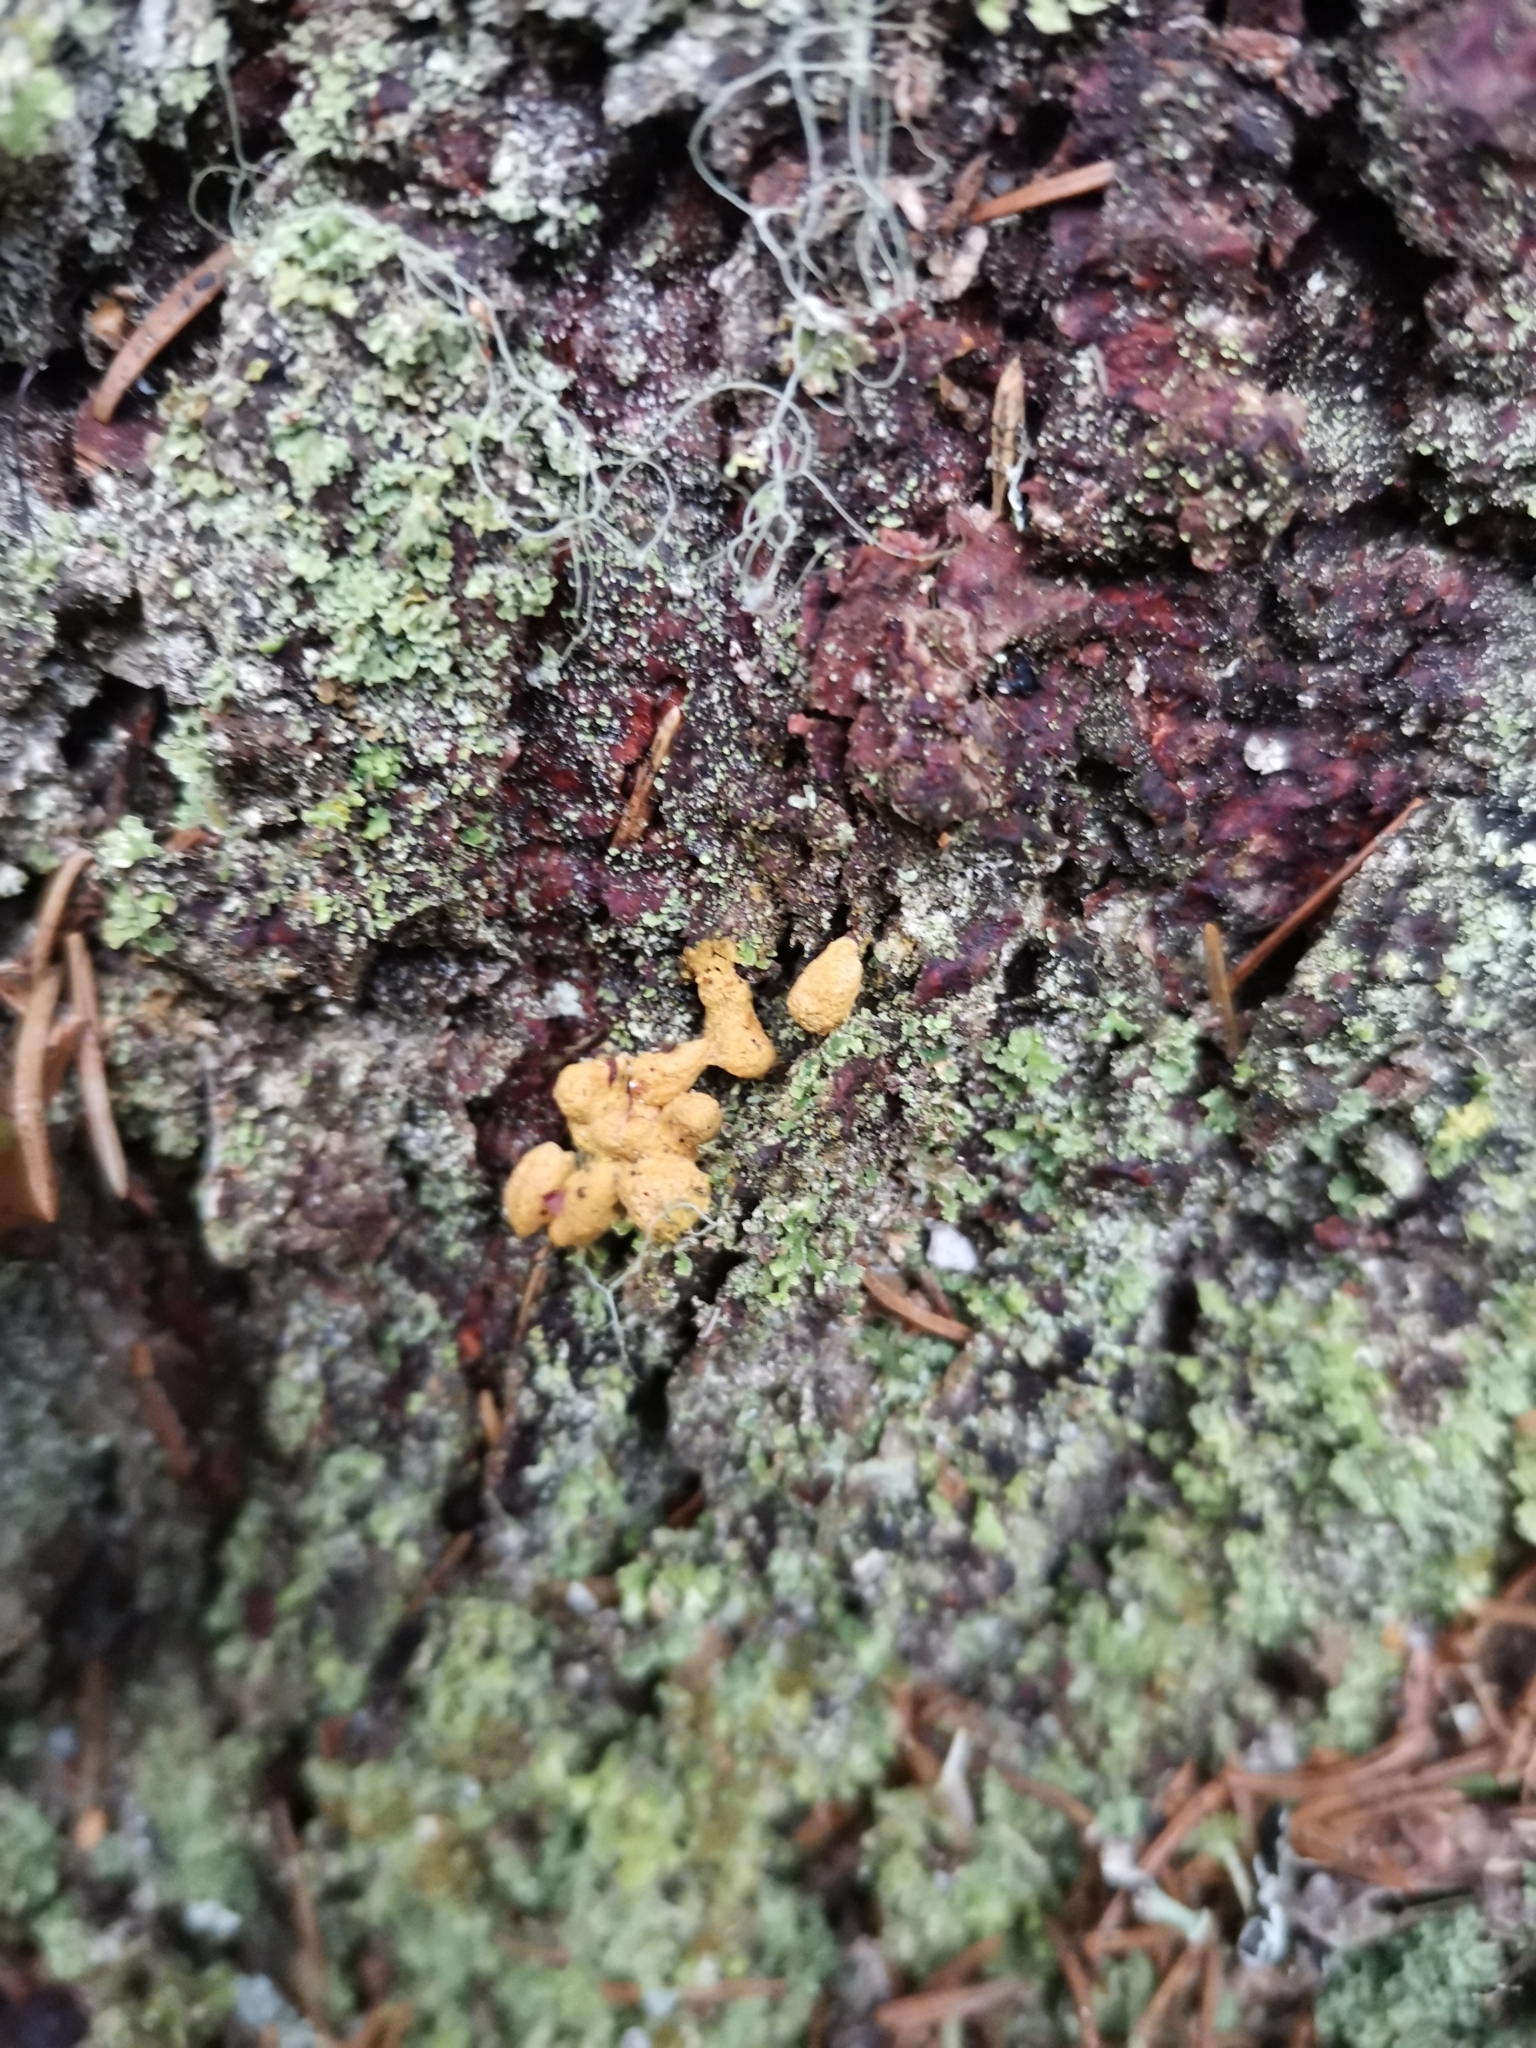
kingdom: Animalia
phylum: Chordata
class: Mammalia
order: Rodentia
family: Sciuridae
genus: Pteromys
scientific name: Pteromys volans
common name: Siberian flying squirrel
